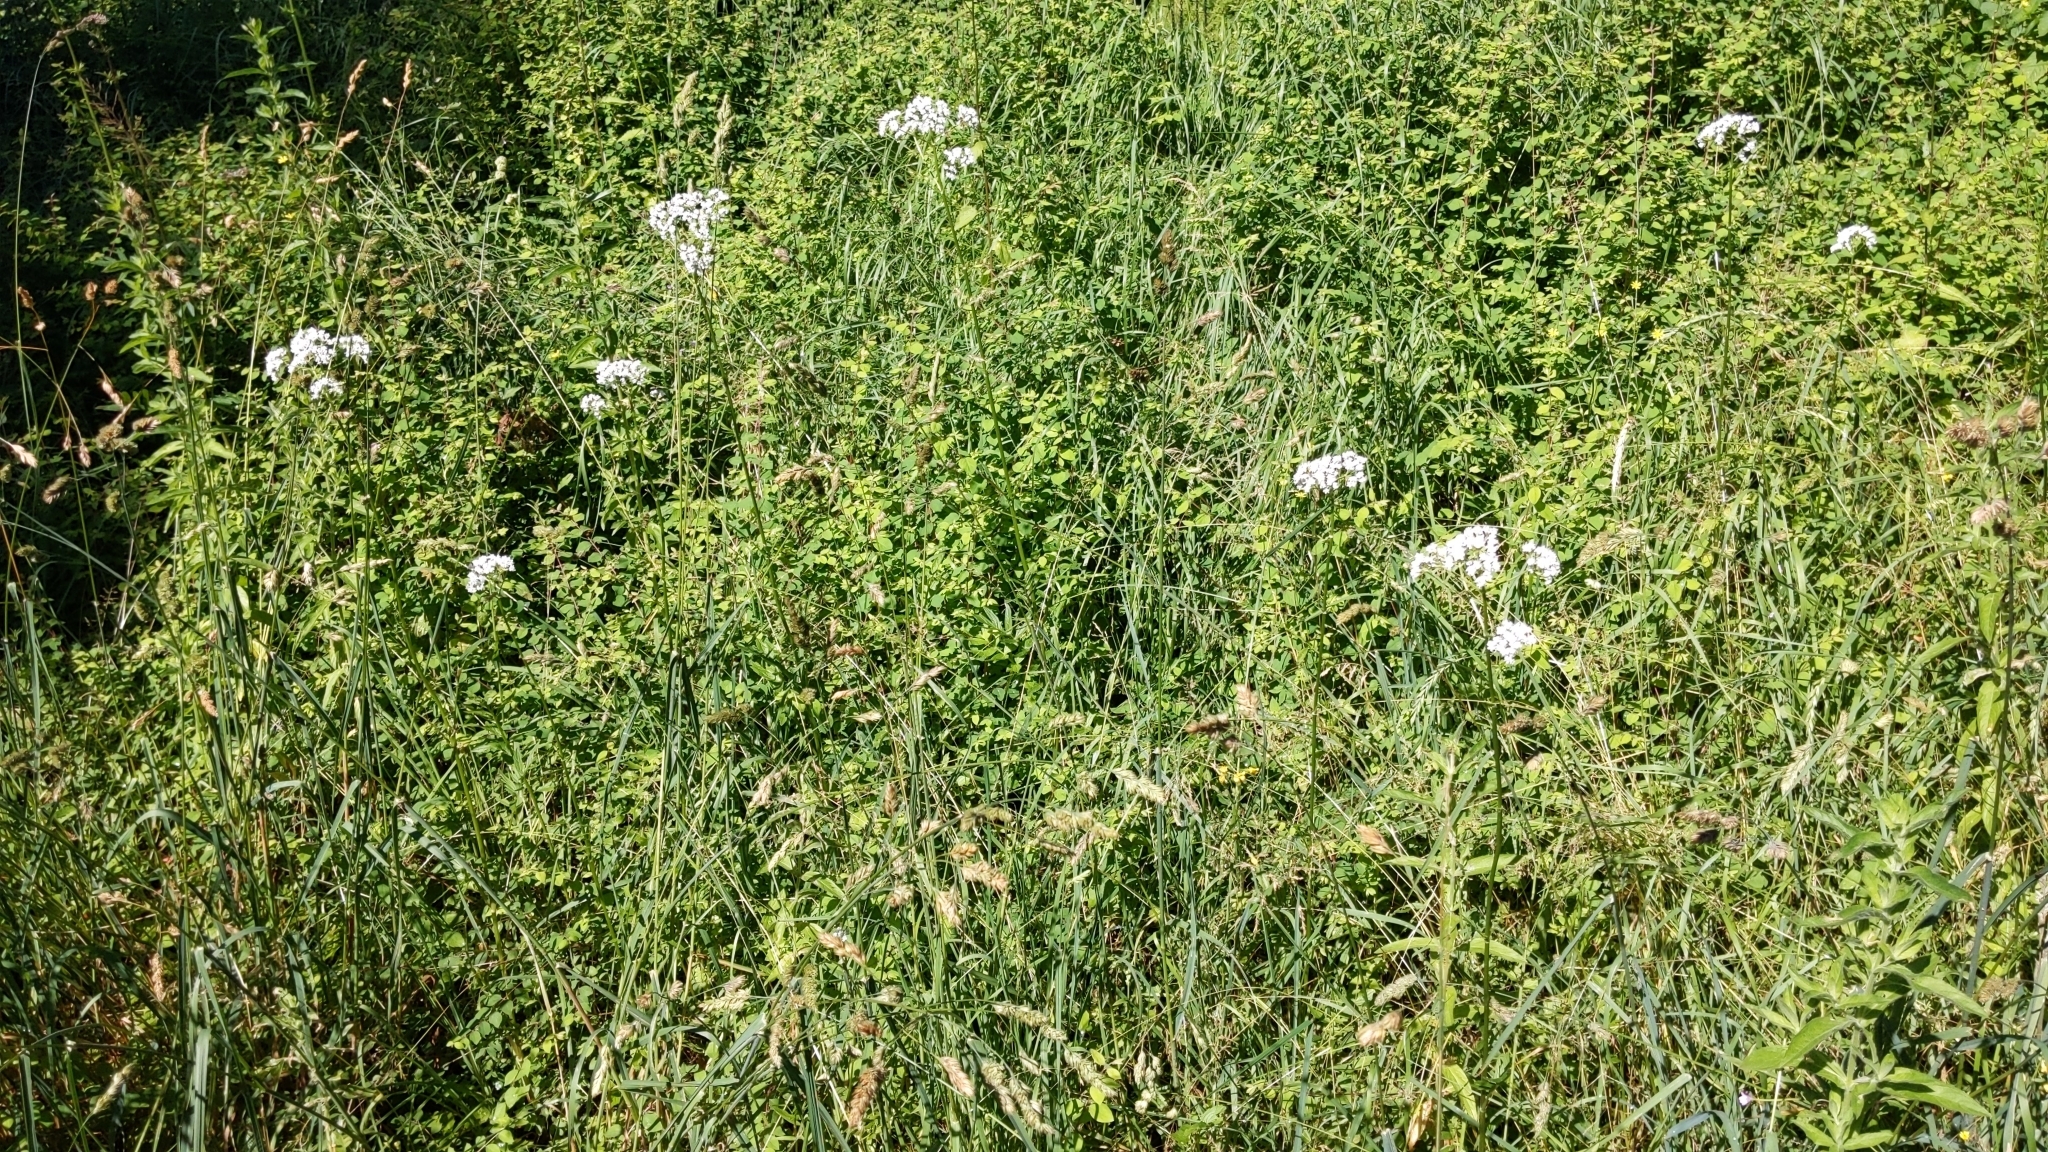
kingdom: Plantae
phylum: Tracheophyta
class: Magnoliopsida
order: Dipsacales
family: Caprifoliaceae
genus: Valeriana
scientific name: Valeriana officinalis
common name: Common valerian
